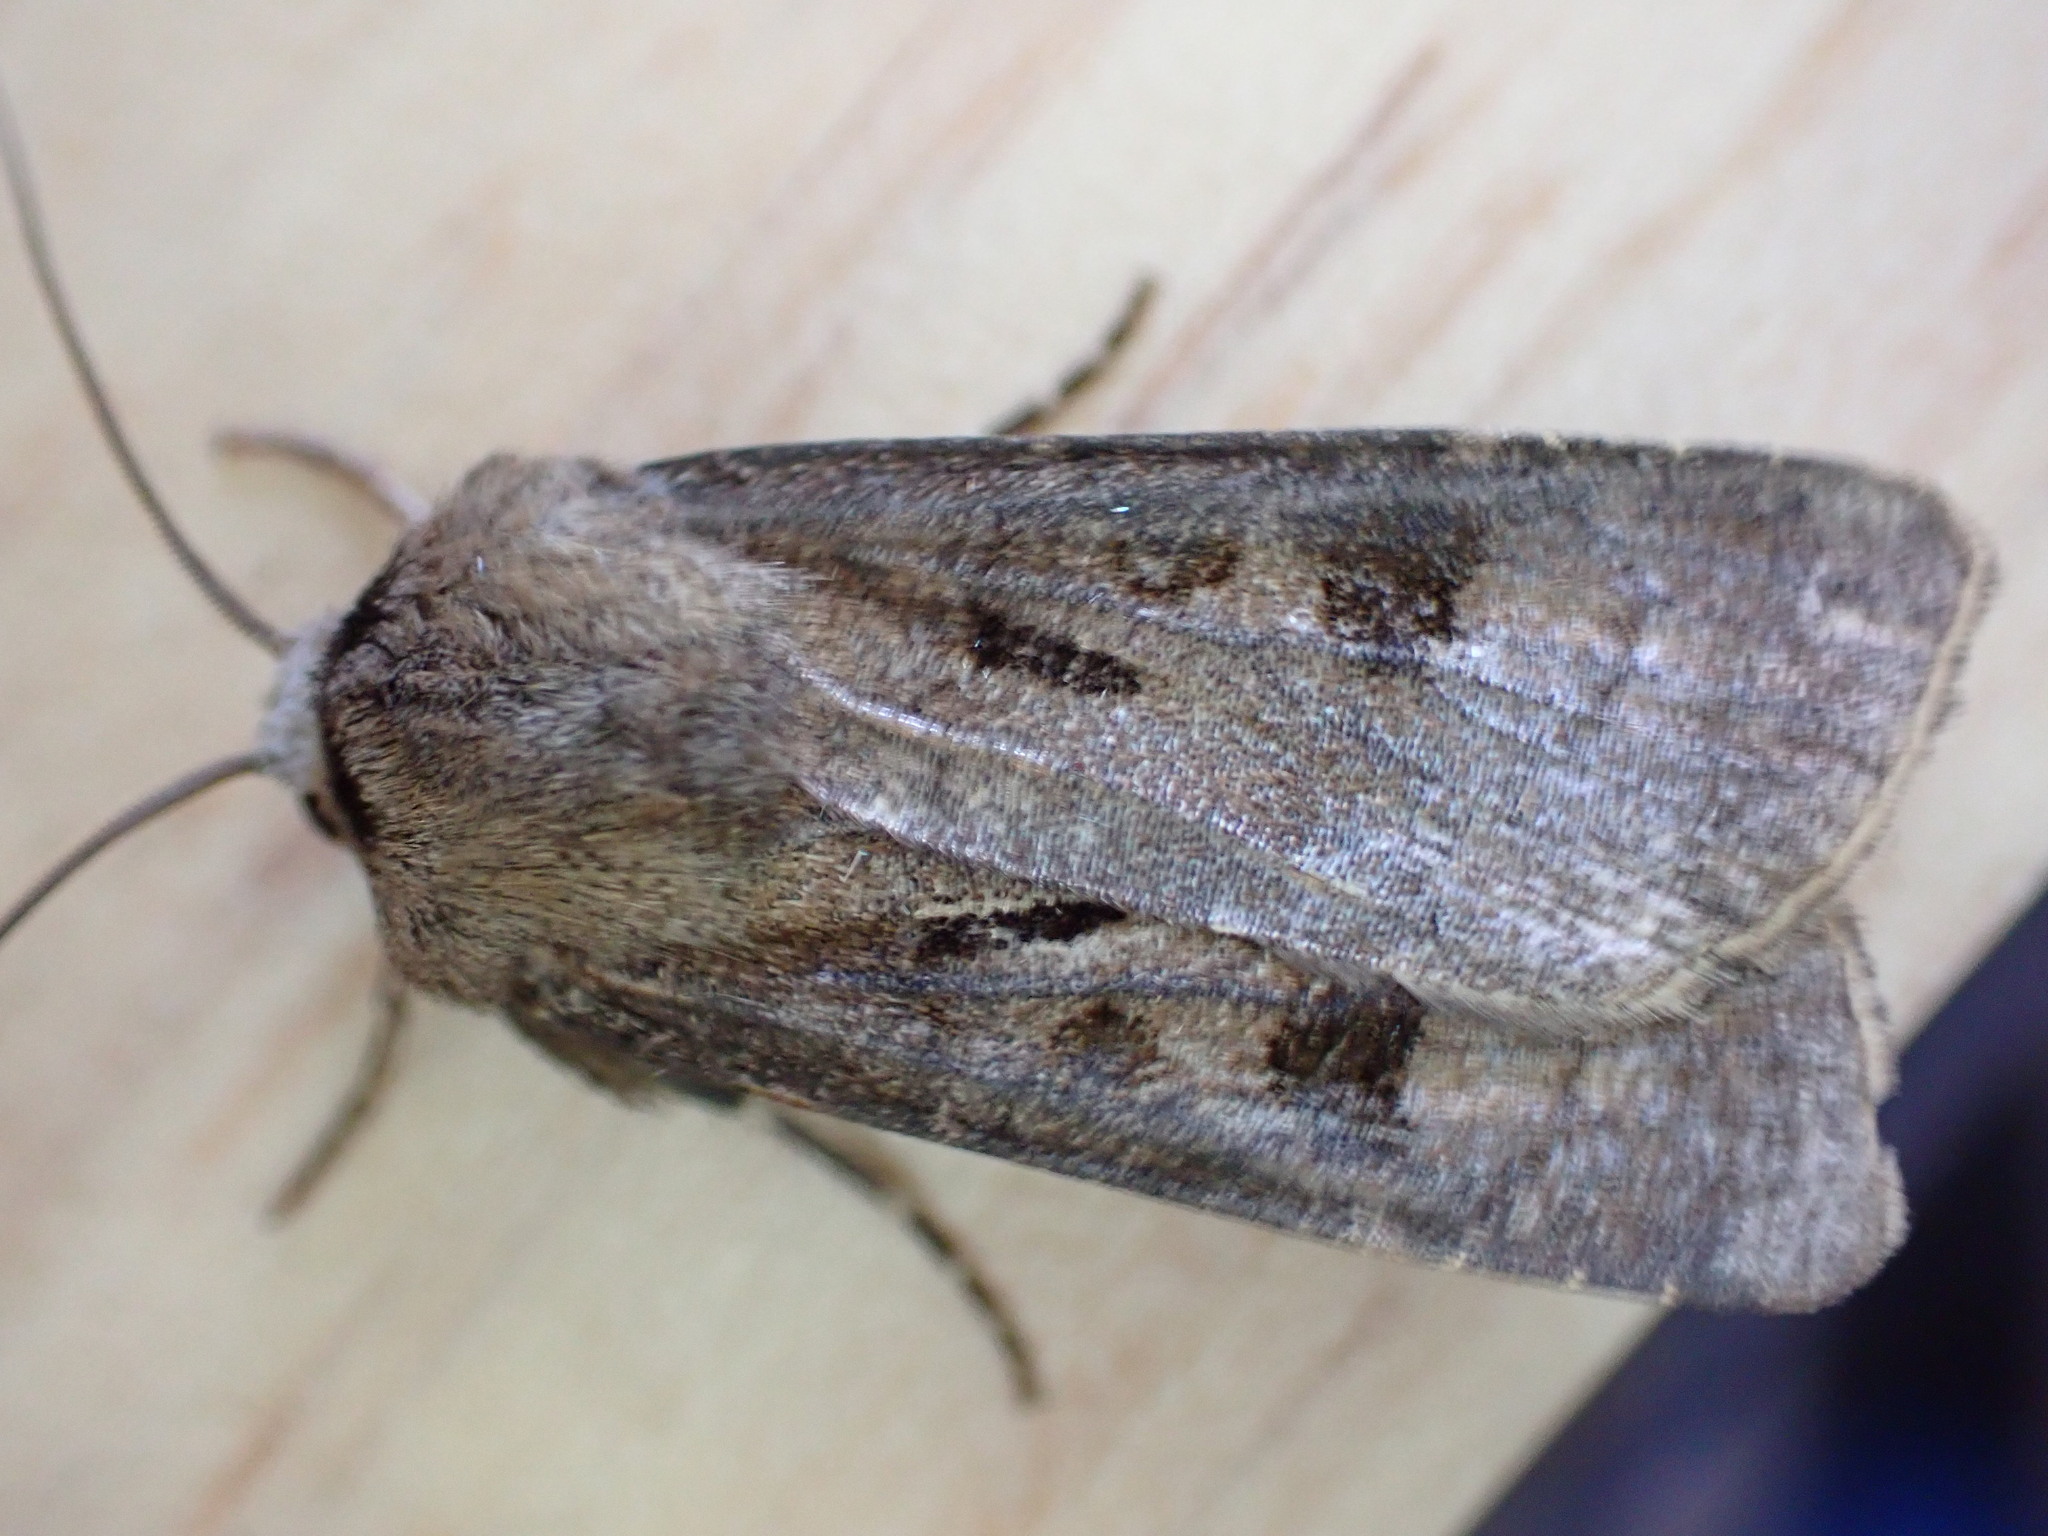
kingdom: Animalia
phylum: Arthropoda
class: Insecta
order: Lepidoptera
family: Noctuidae
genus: Agrotis
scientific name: Agrotis exclamationis
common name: Heart and dart
